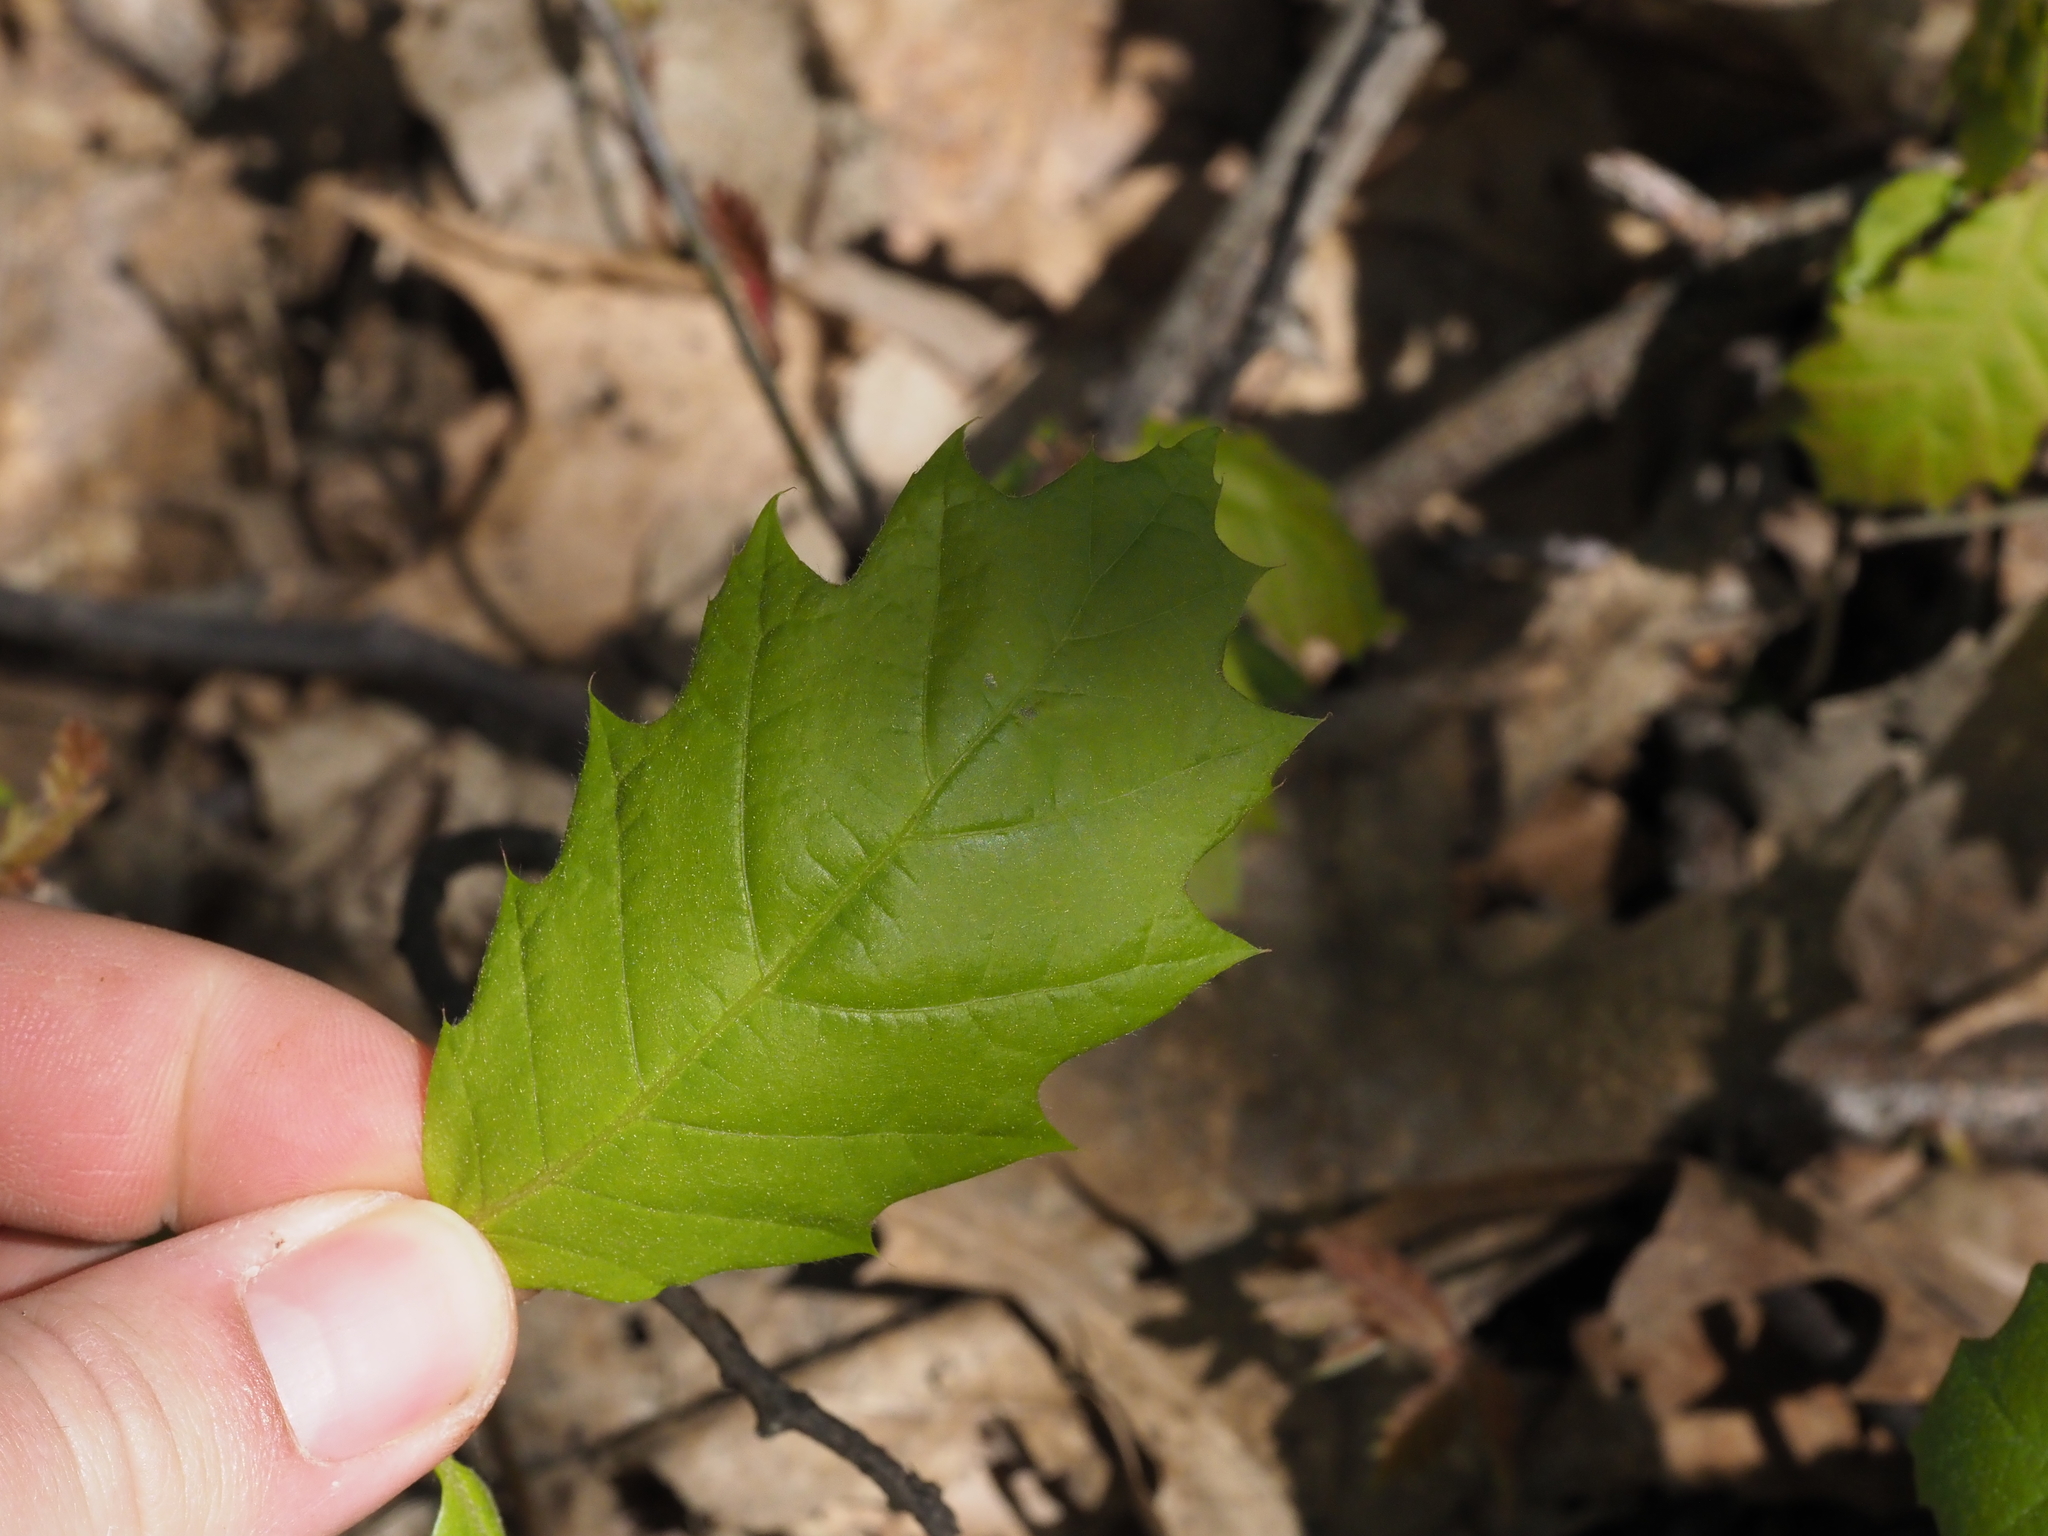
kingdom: Plantae
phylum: Tracheophyta
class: Magnoliopsida
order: Fagales
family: Fagaceae
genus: Quercus
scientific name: Quercus rubra
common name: Red oak
